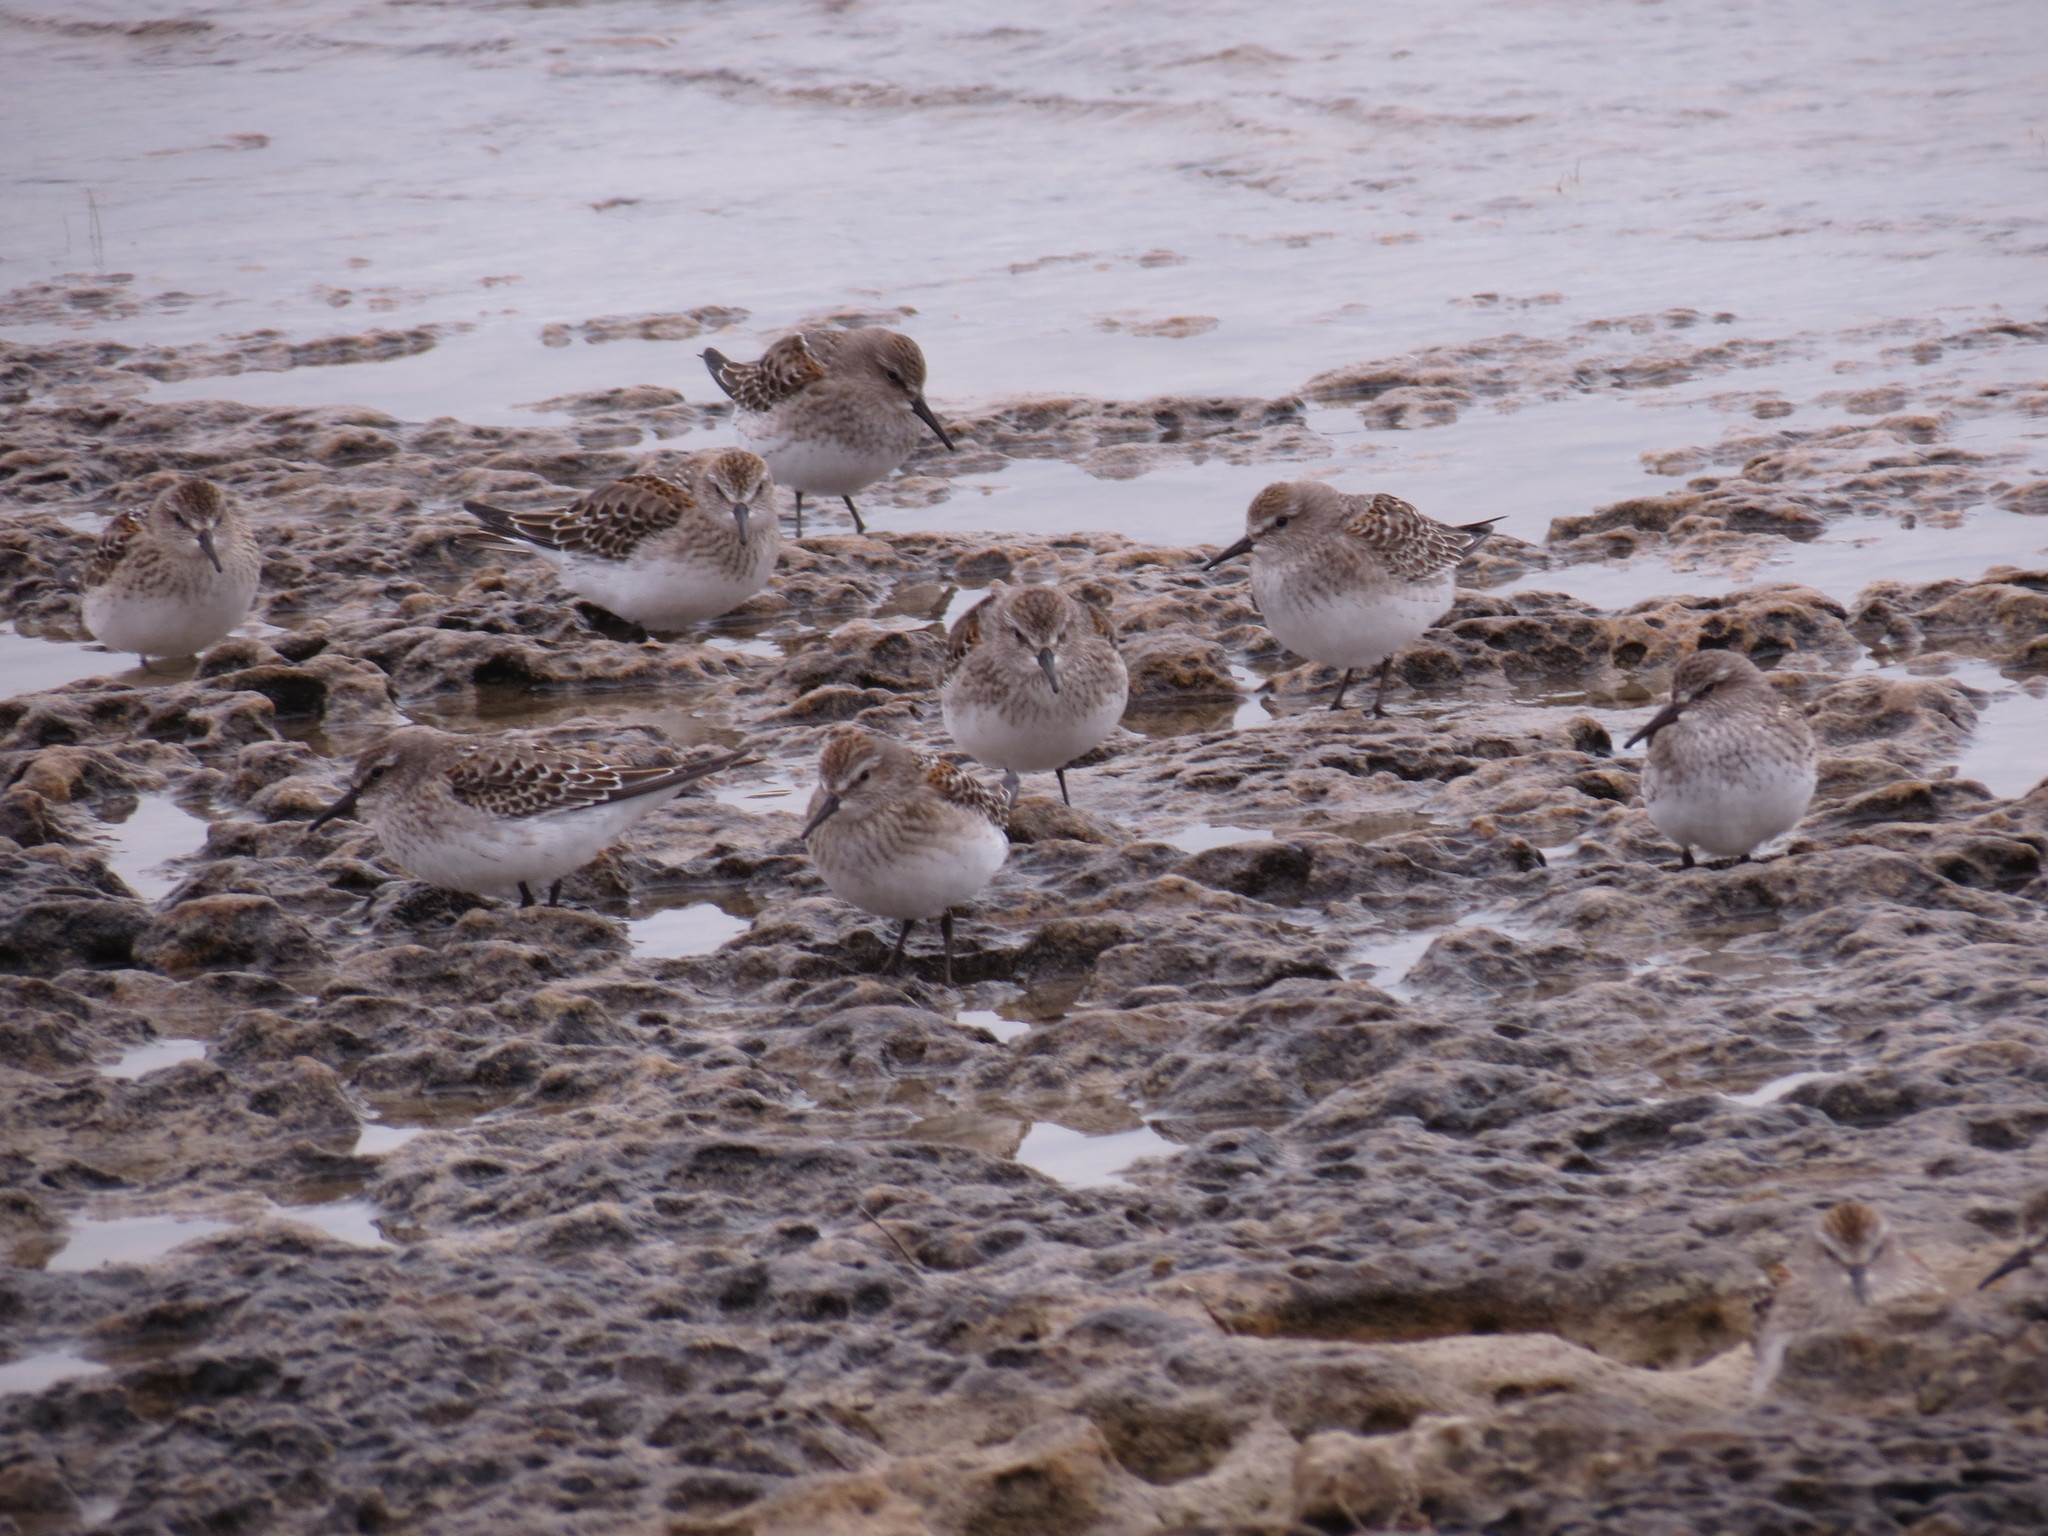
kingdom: Animalia
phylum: Chordata
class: Aves
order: Charadriiformes
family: Scolopacidae
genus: Calidris
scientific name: Calidris fuscicollis
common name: White-rumped sandpiper
